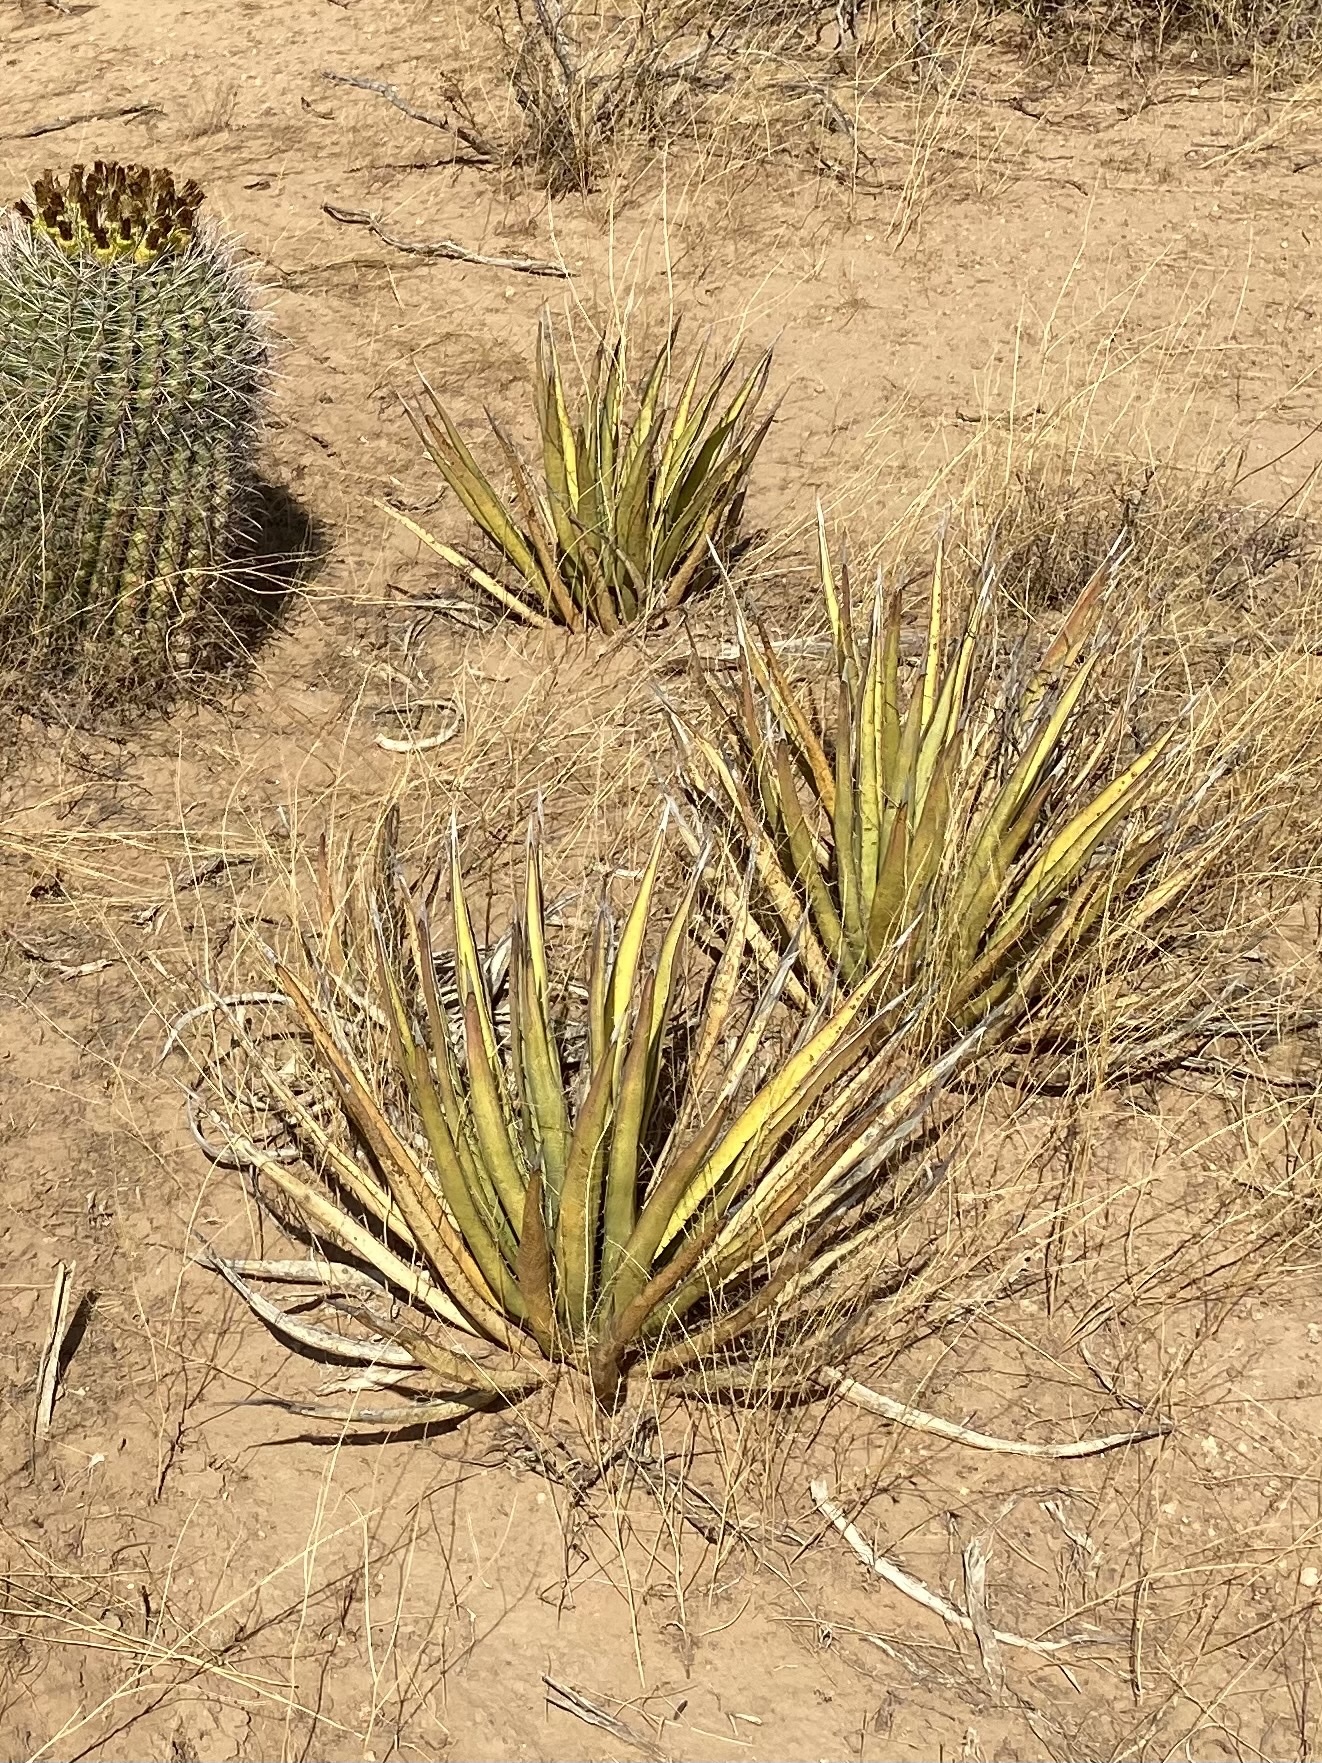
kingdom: Plantae
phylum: Tracheophyta
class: Liliopsida
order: Asparagales
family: Asparagaceae
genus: Agave
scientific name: Agave lechuguilla
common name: Lecheguilla agave
